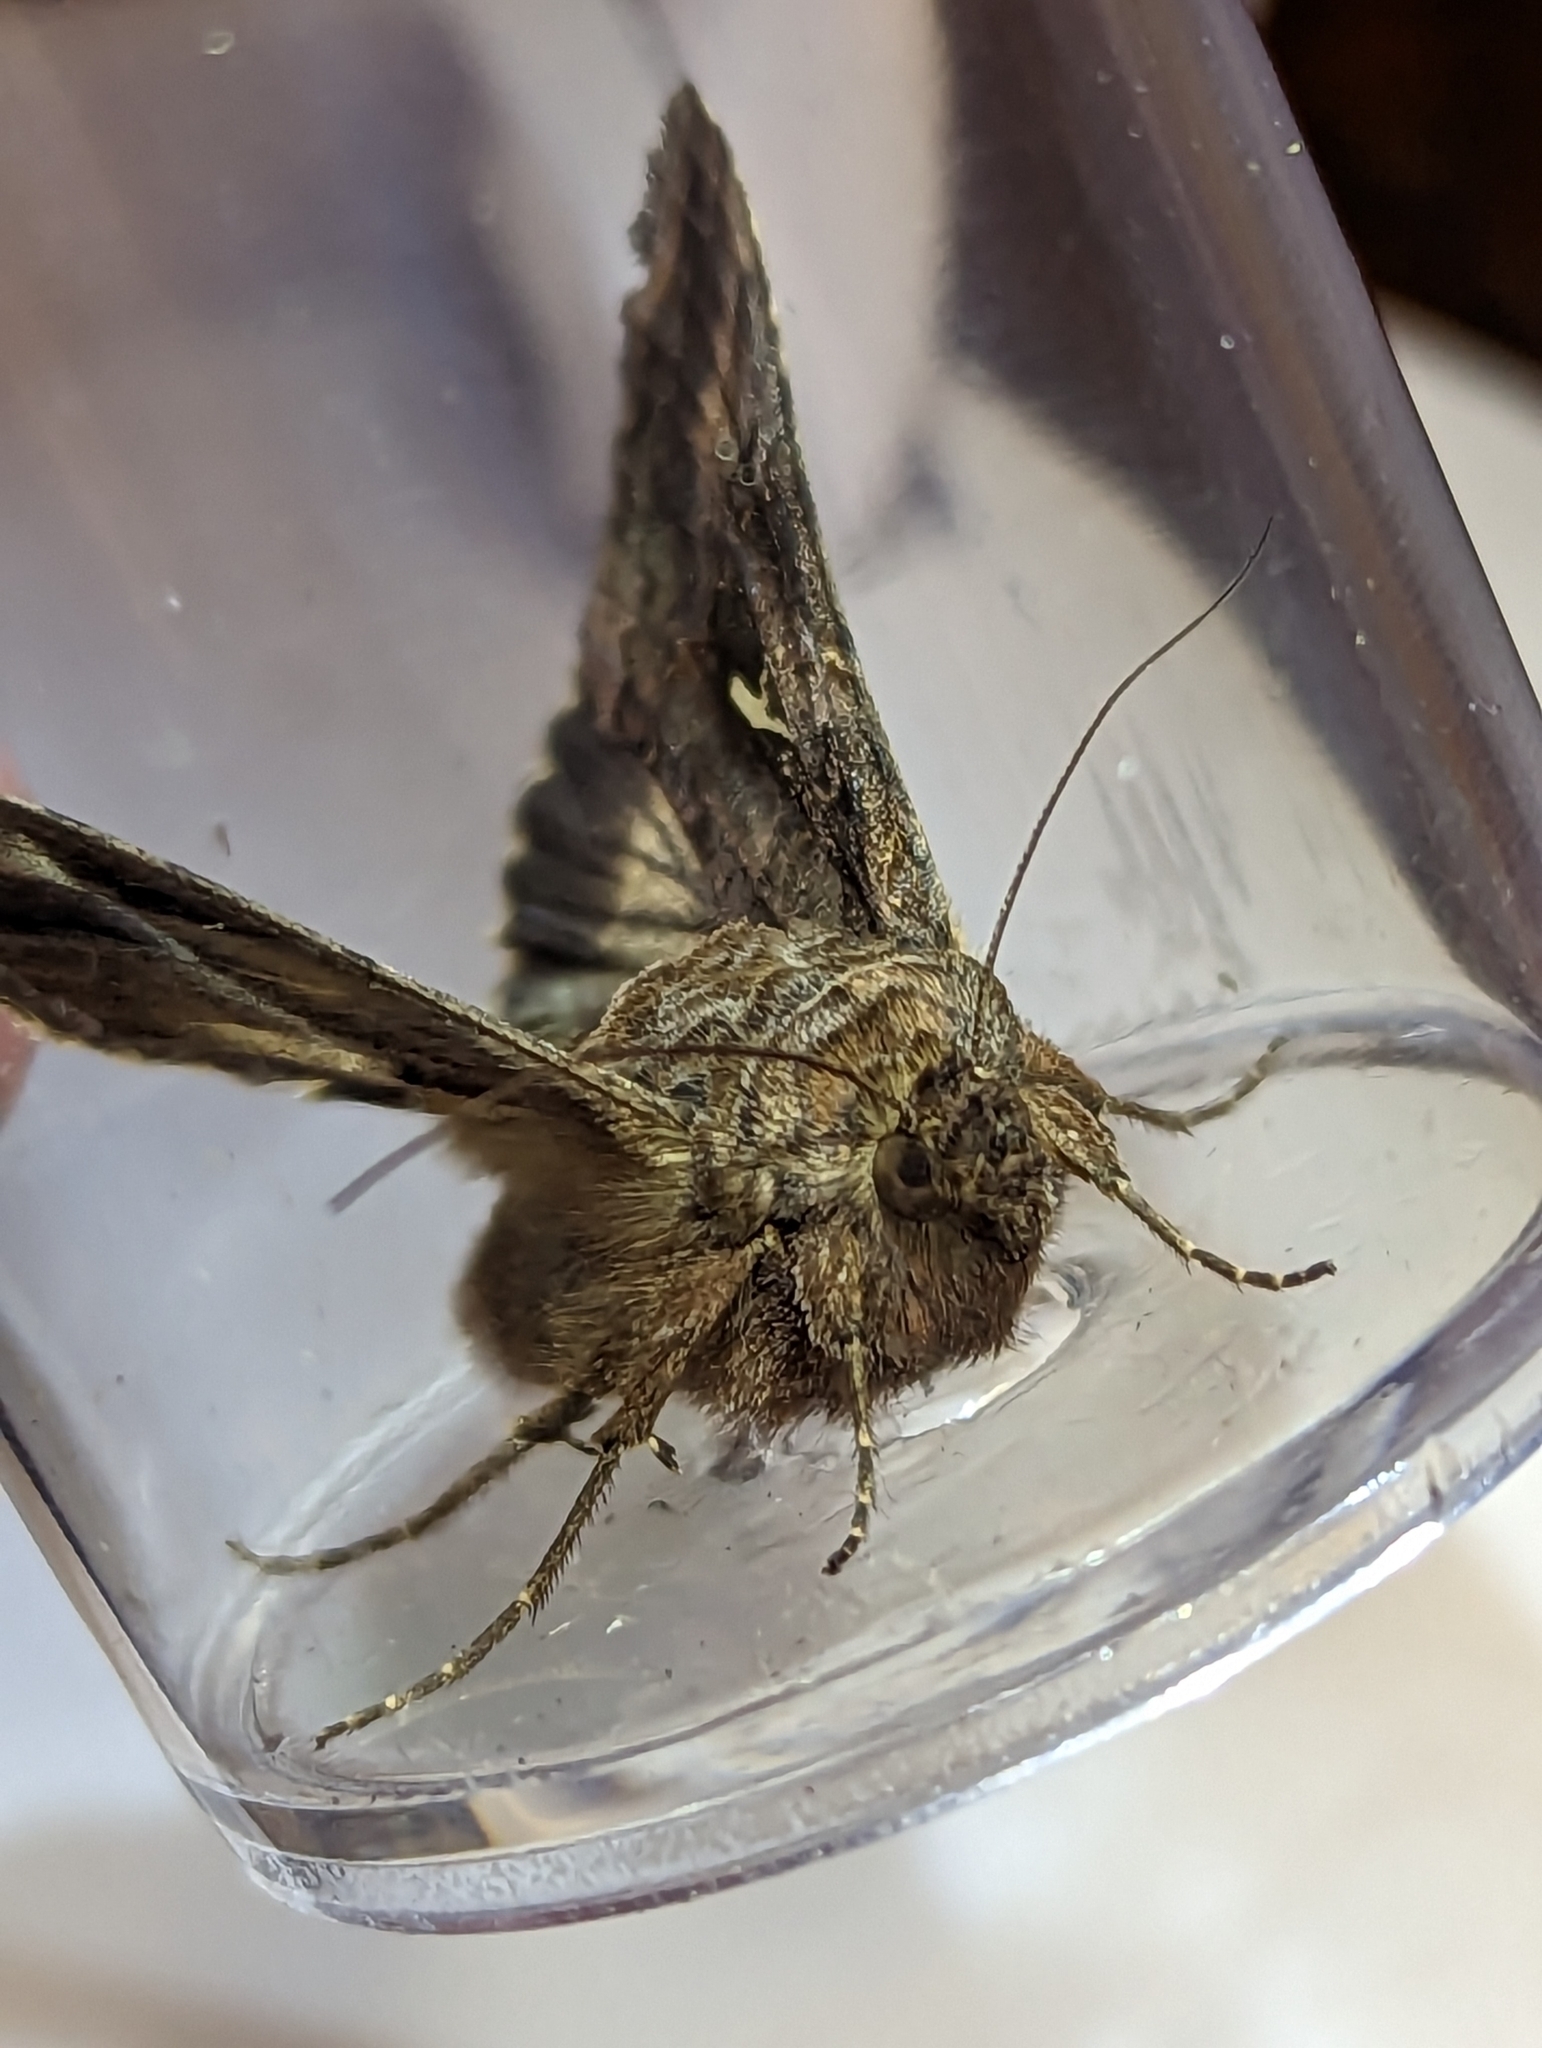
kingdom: Animalia
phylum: Arthropoda
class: Insecta
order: Lepidoptera
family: Noctuidae
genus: Autographa
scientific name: Autographa gamma
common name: Silver y
